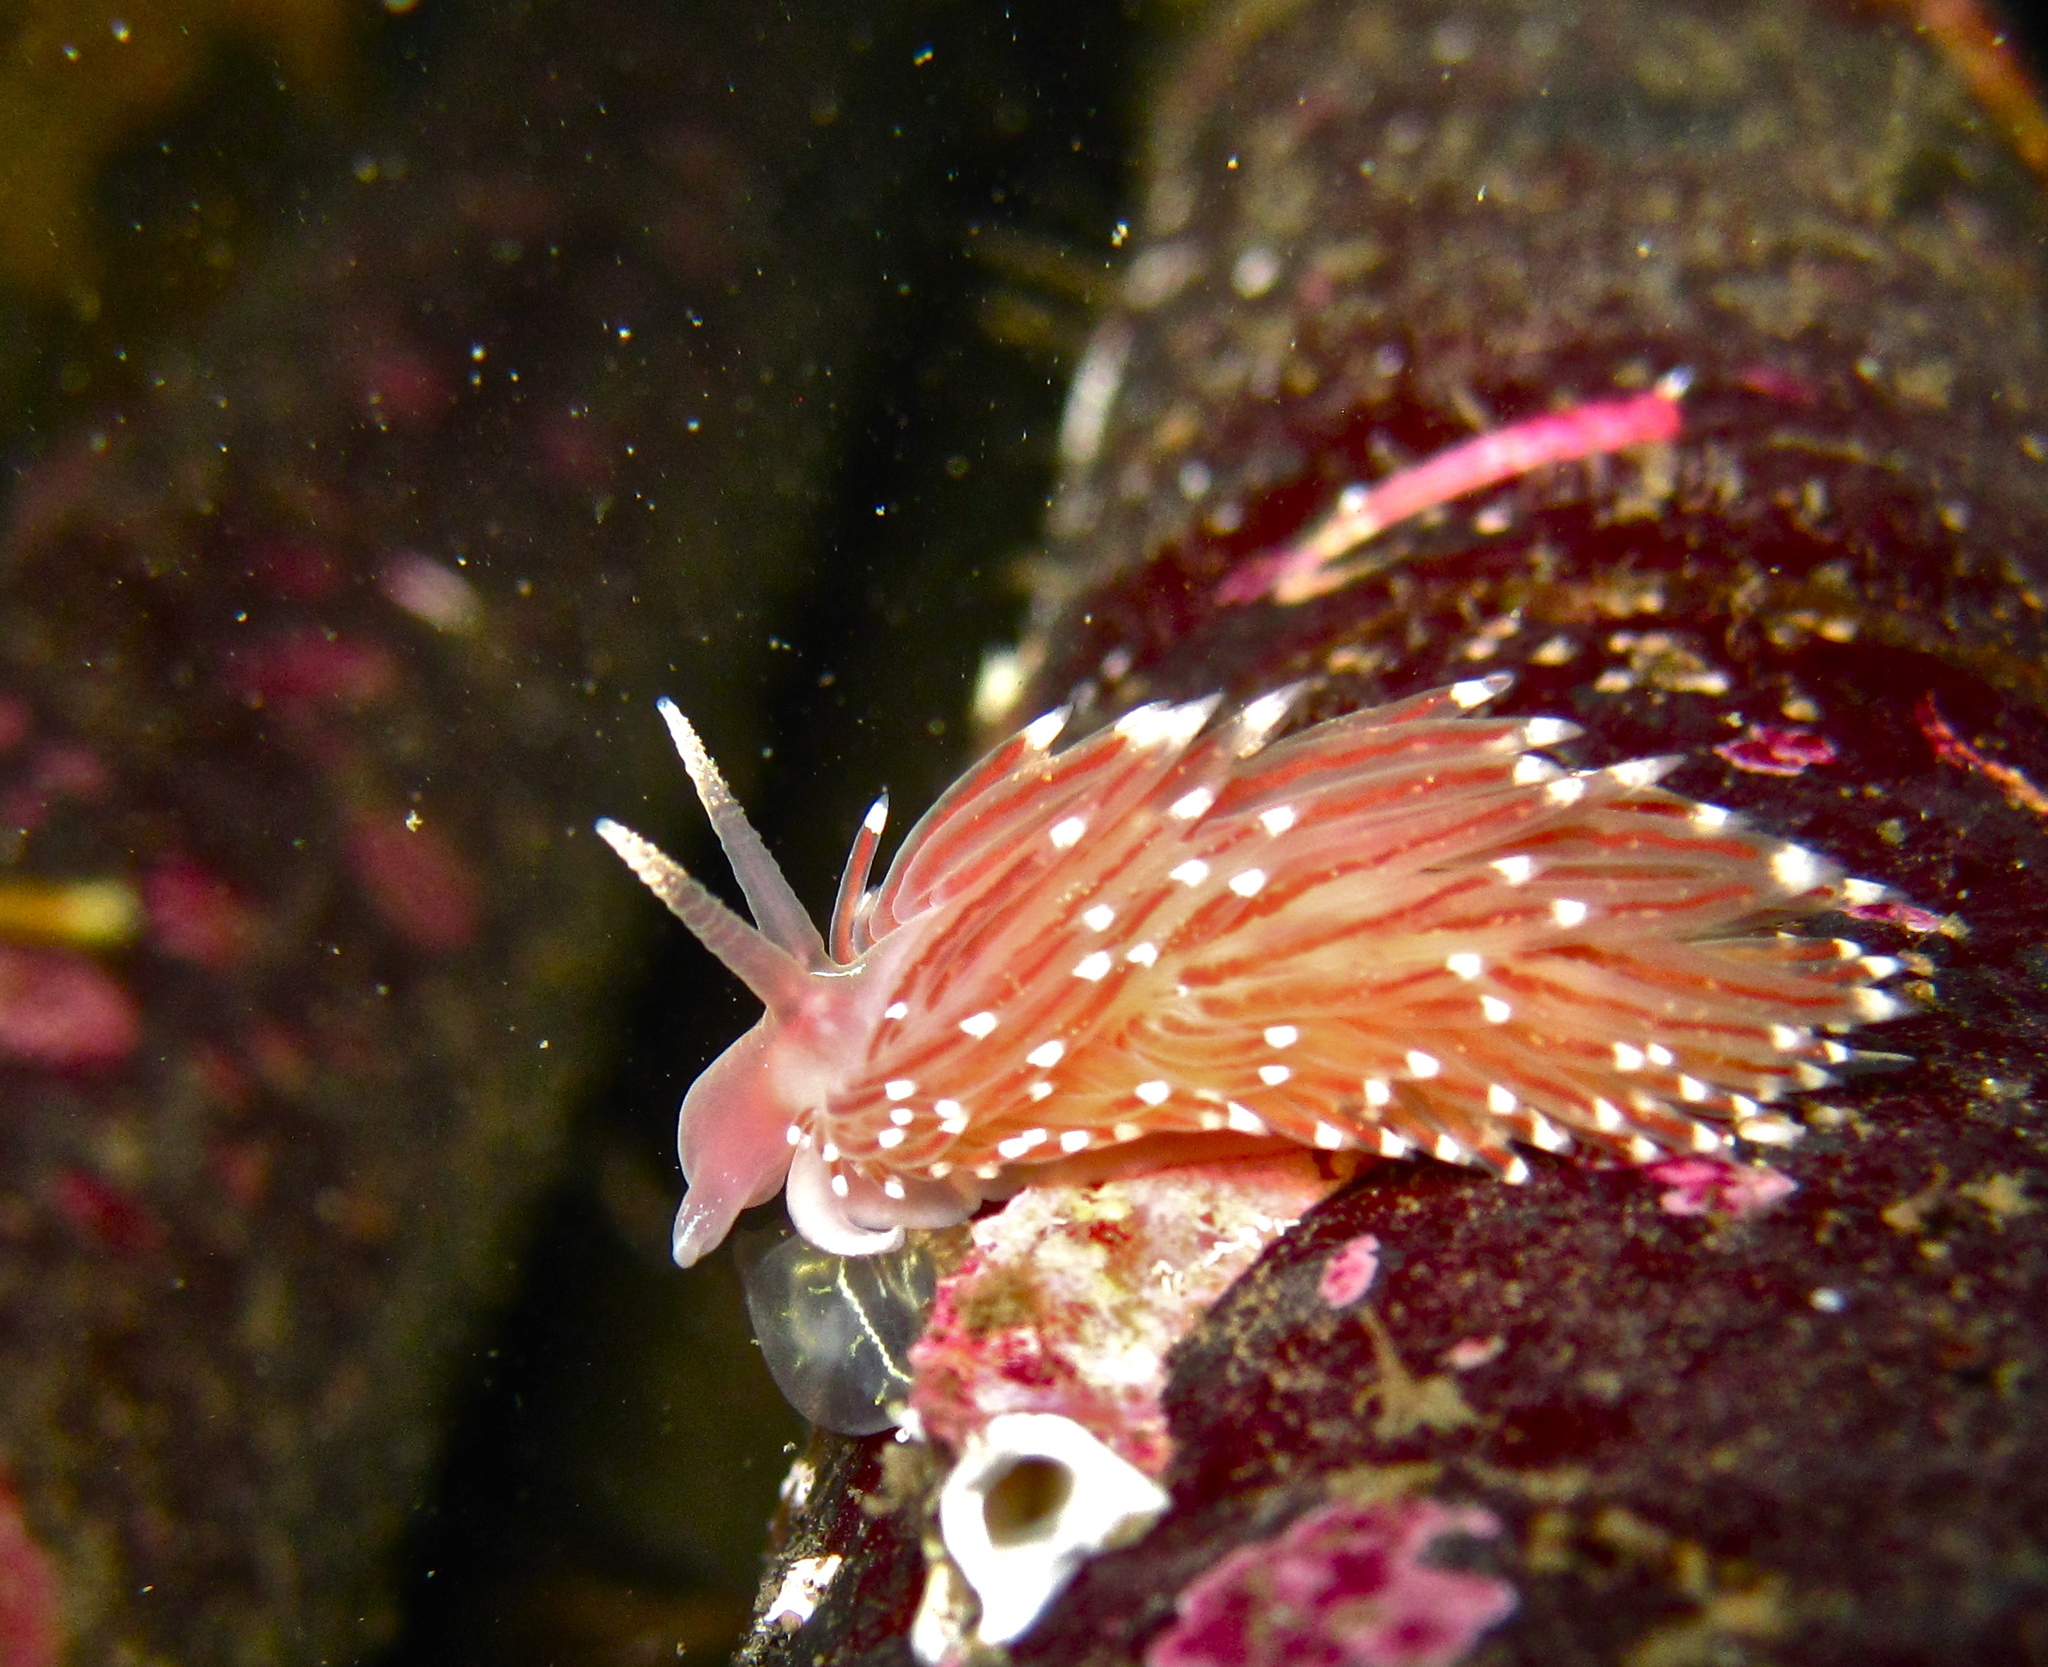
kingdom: Animalia
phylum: Mollusca
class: Gastropoda
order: Nudibranchia
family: Facelinidae
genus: Facelina
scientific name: Facelina bostoniensis
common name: Boston facelina
